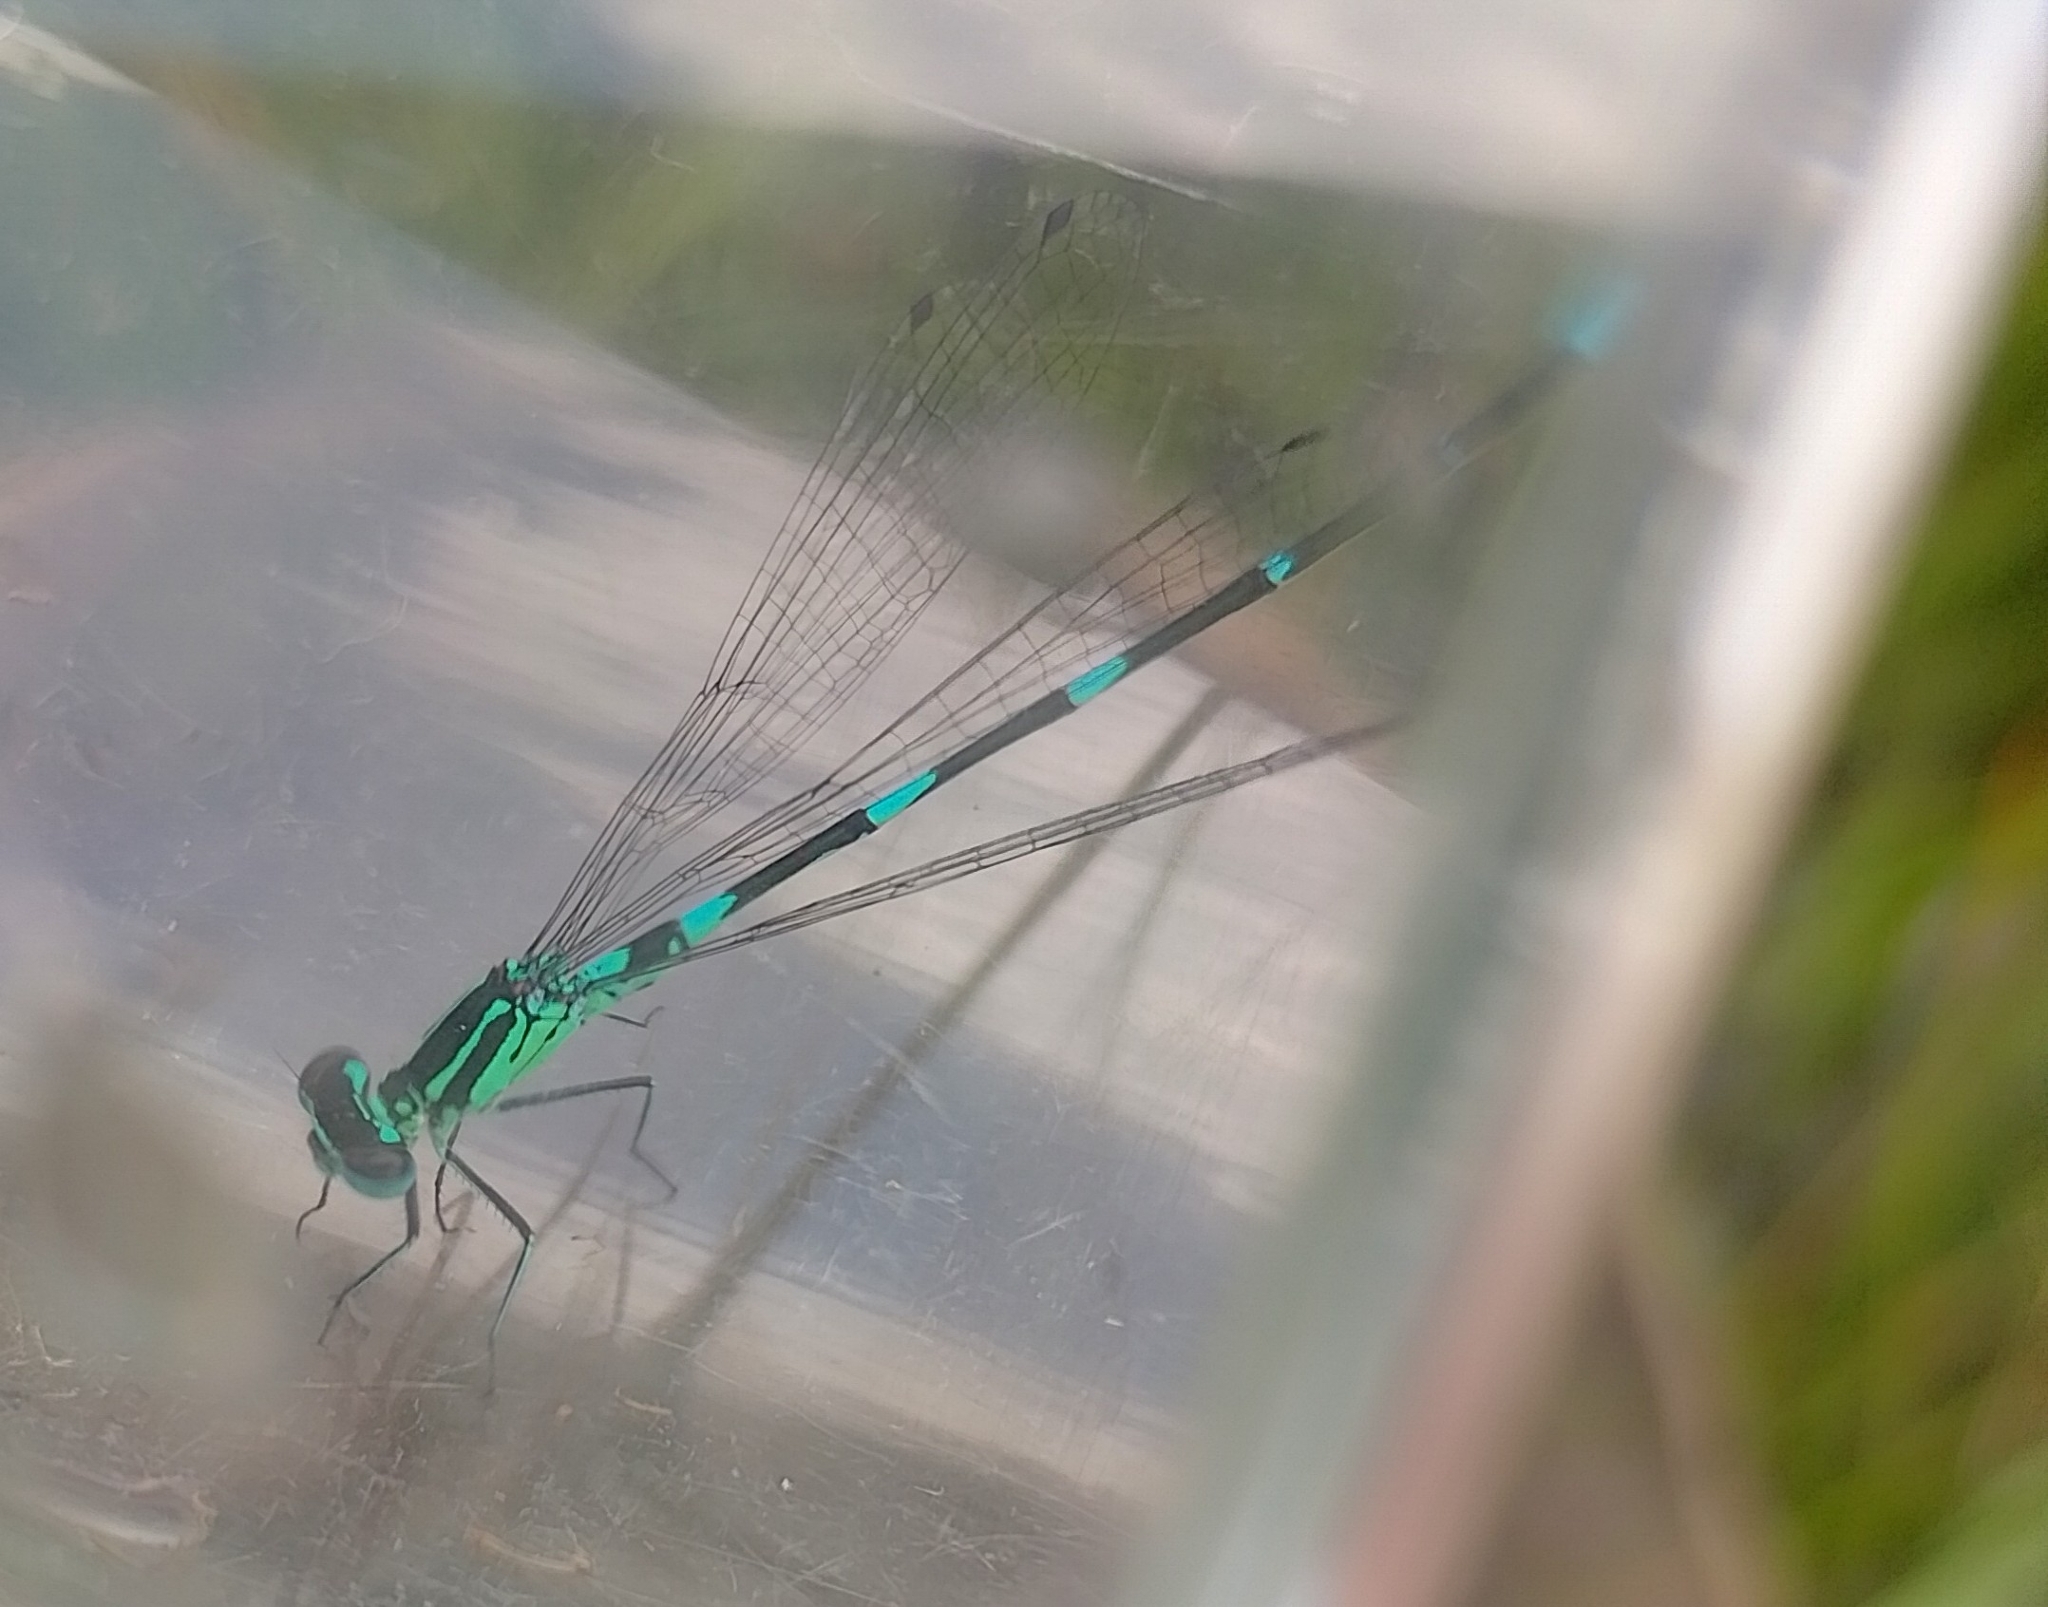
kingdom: Animalia
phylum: Arthropoda
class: Insecta
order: Odonata
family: Coenagrionidae
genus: Coenagrion
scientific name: Coenagrion pulchellum
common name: Variable bluet
